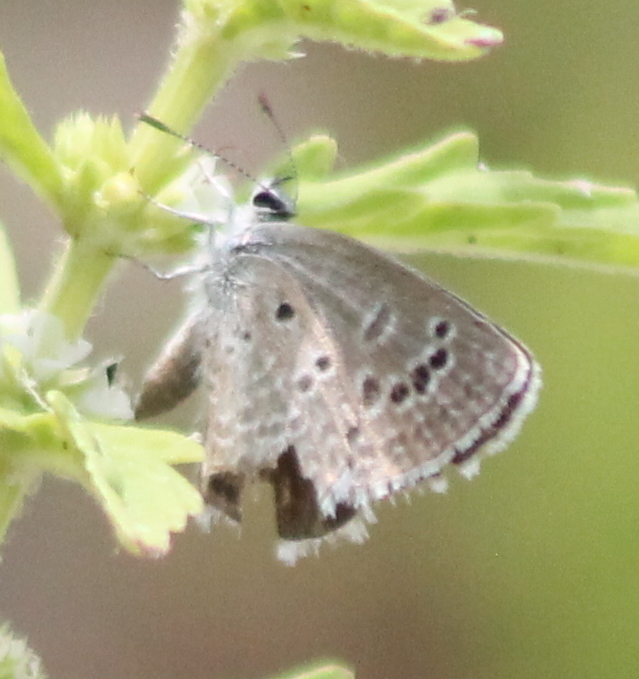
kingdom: Animalia
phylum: Arthropoda
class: Insecta
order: Lepidoptera
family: Lycaenidae
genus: Echinargus
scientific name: Echinargus isola
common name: Reakirt's blue
